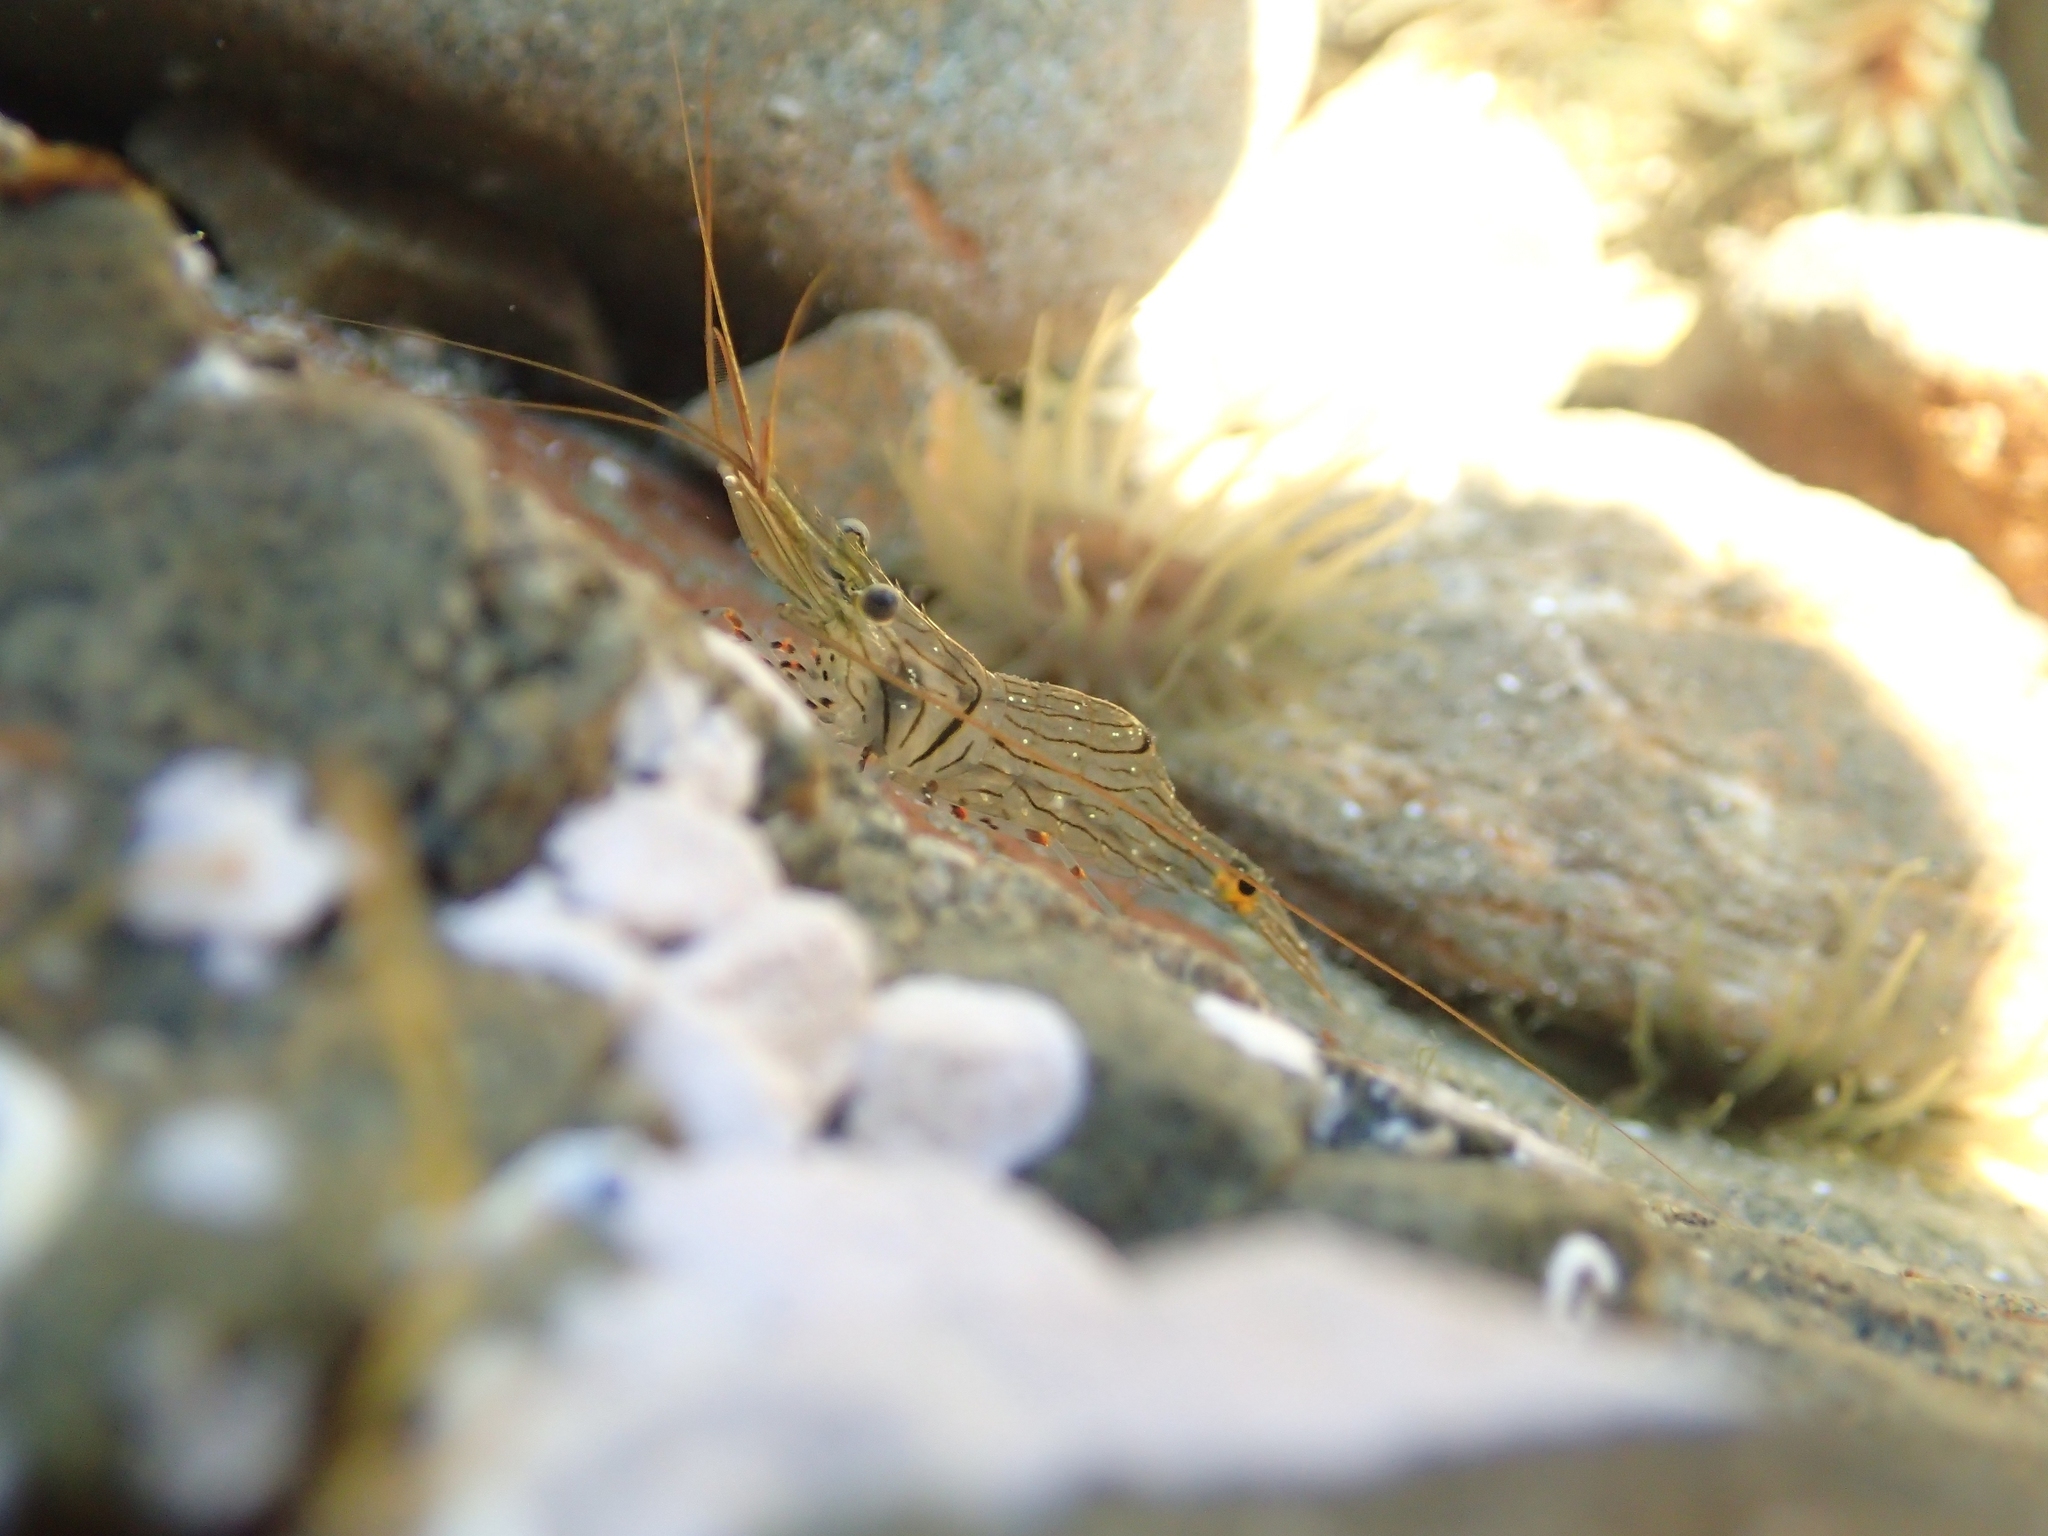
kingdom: Animalia
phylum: Arthropoda
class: Malacostraca
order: Decapoda
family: Palaemonidae
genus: Palaemon
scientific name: Palaemon affinis
